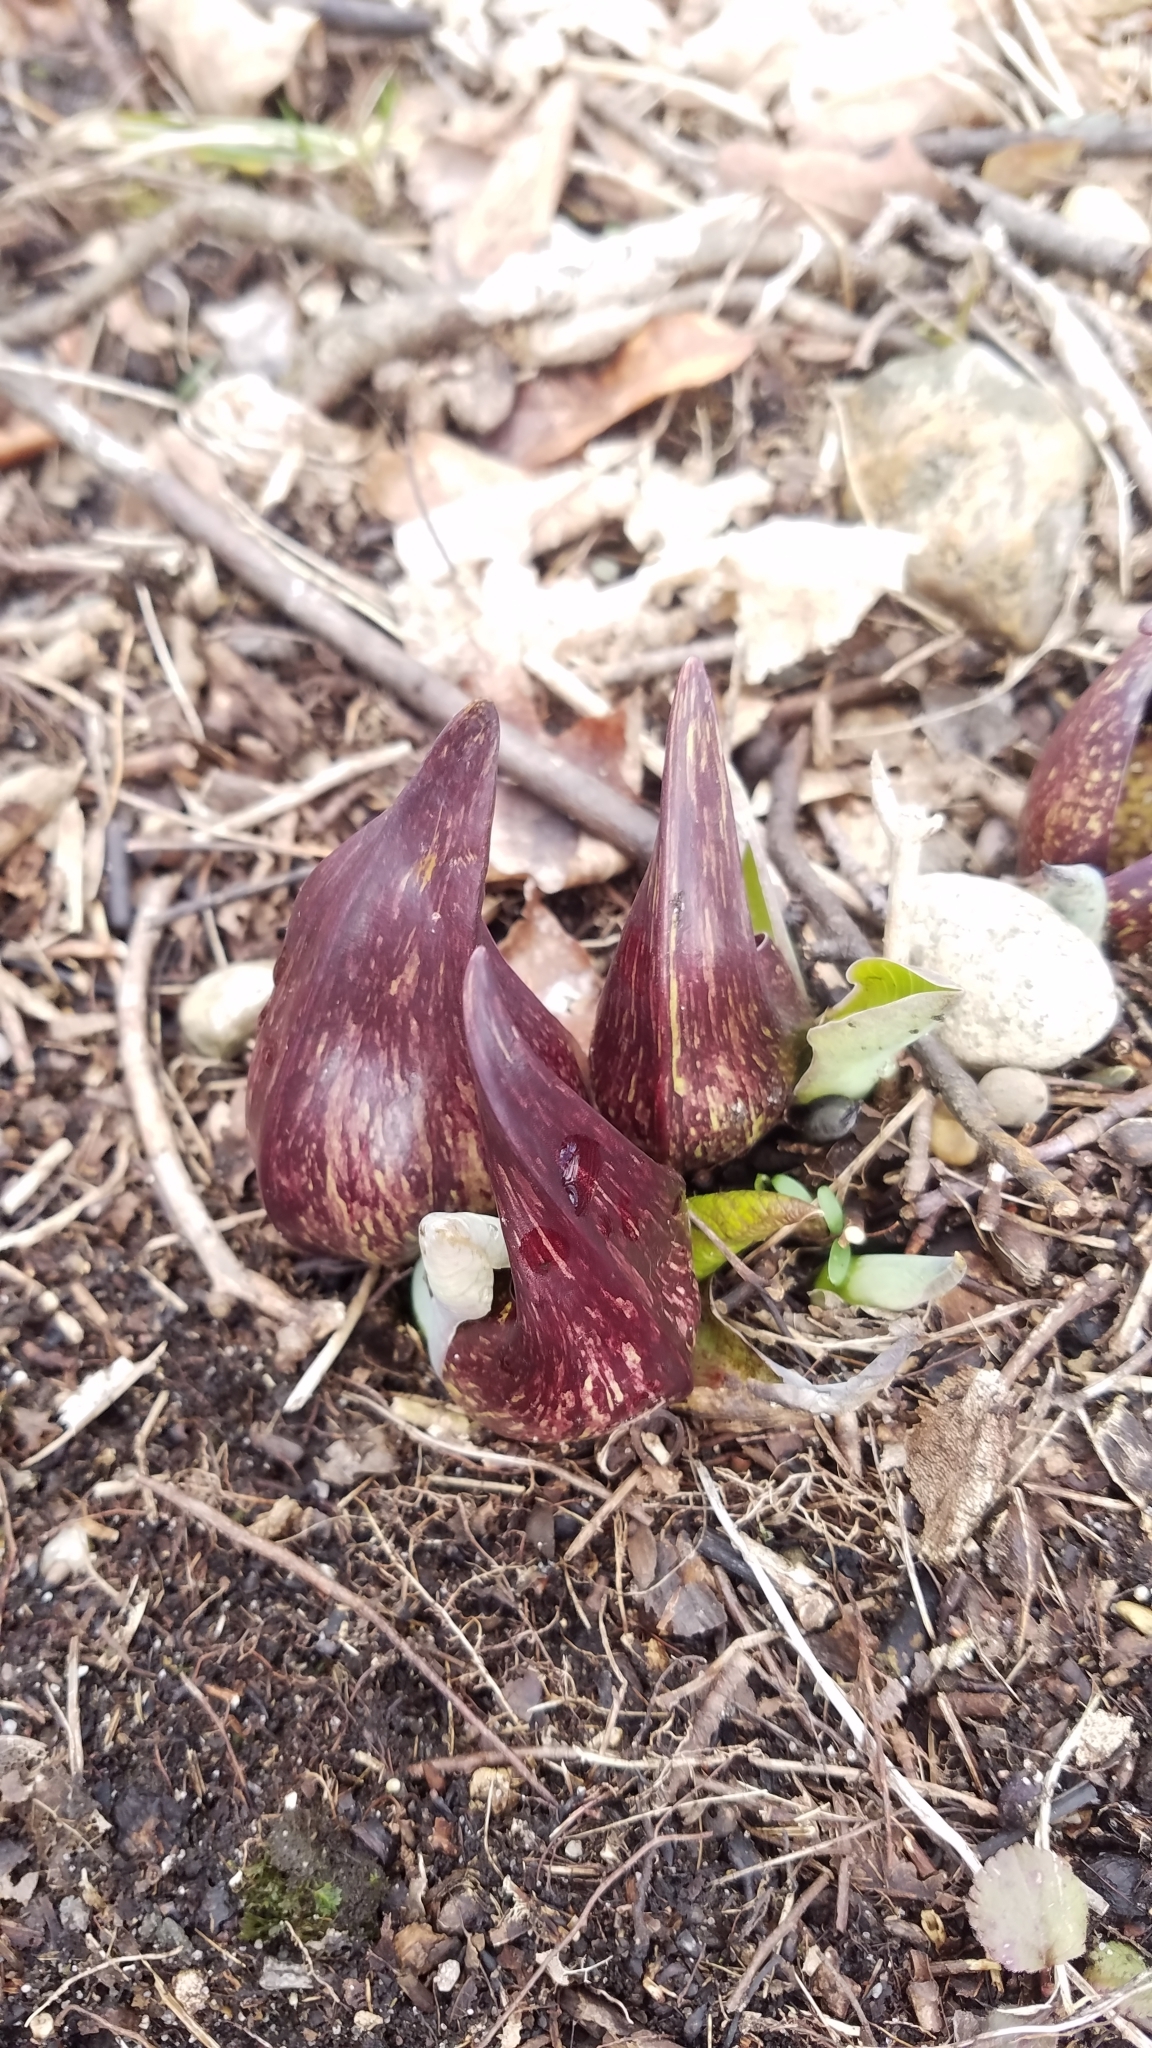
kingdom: Plantae
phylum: Tracheophyta
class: Liliopsida
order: Alismatales
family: Araceae
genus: Symplocarpus
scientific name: Symplocarpus foetidus
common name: Eastern skunk cabbage
